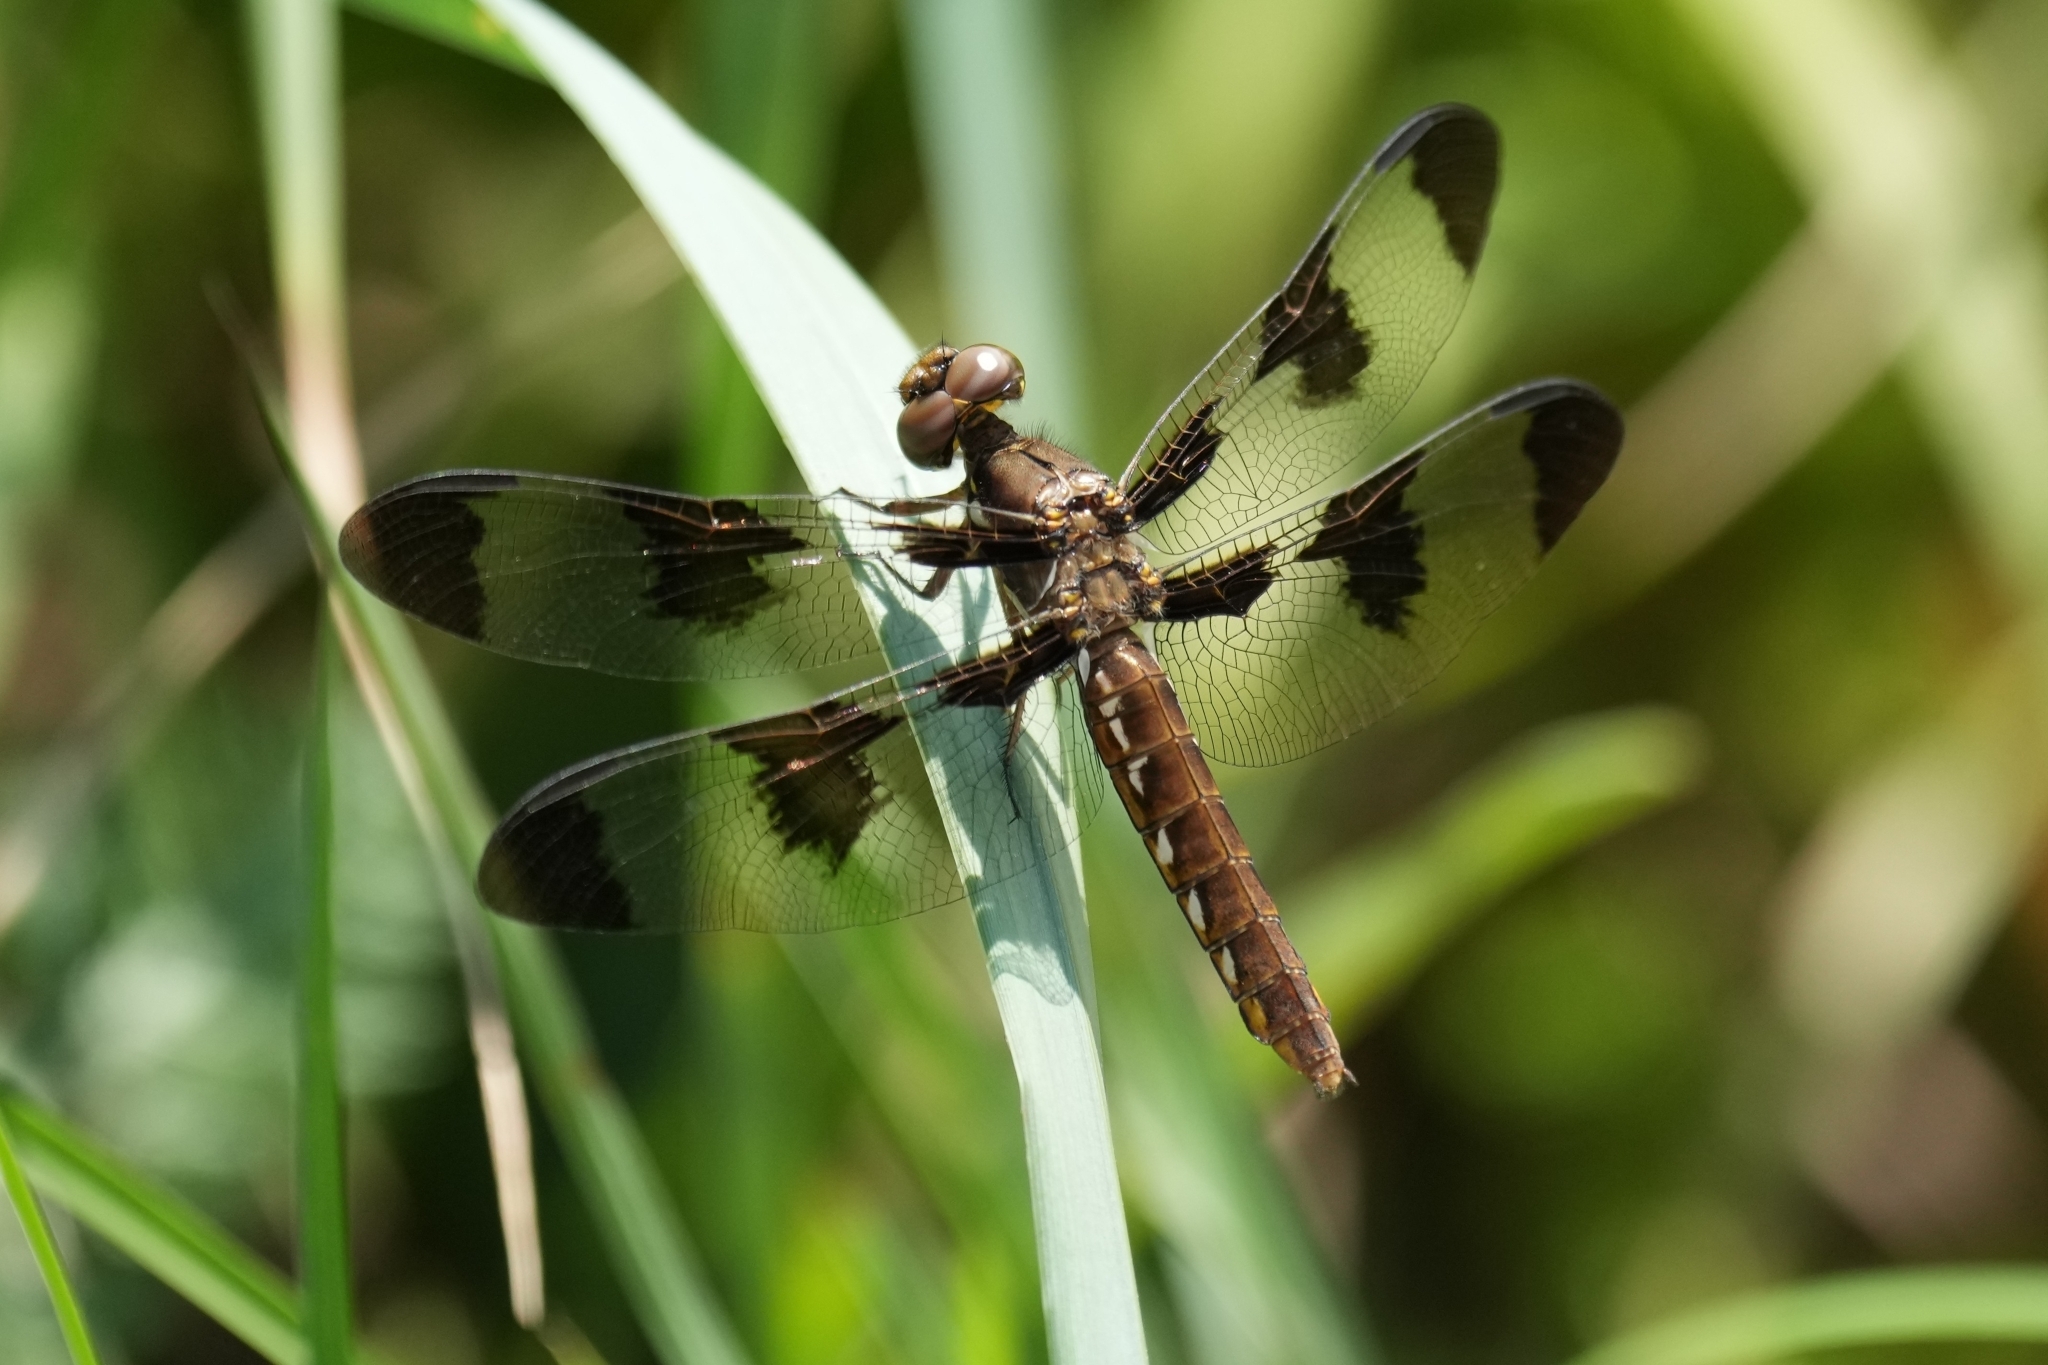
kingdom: Animalia
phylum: Arthropoda
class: Insecta
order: Odonata
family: Libellulidae
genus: Plathemis
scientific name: Plathemis lydia
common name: Common whitetail
